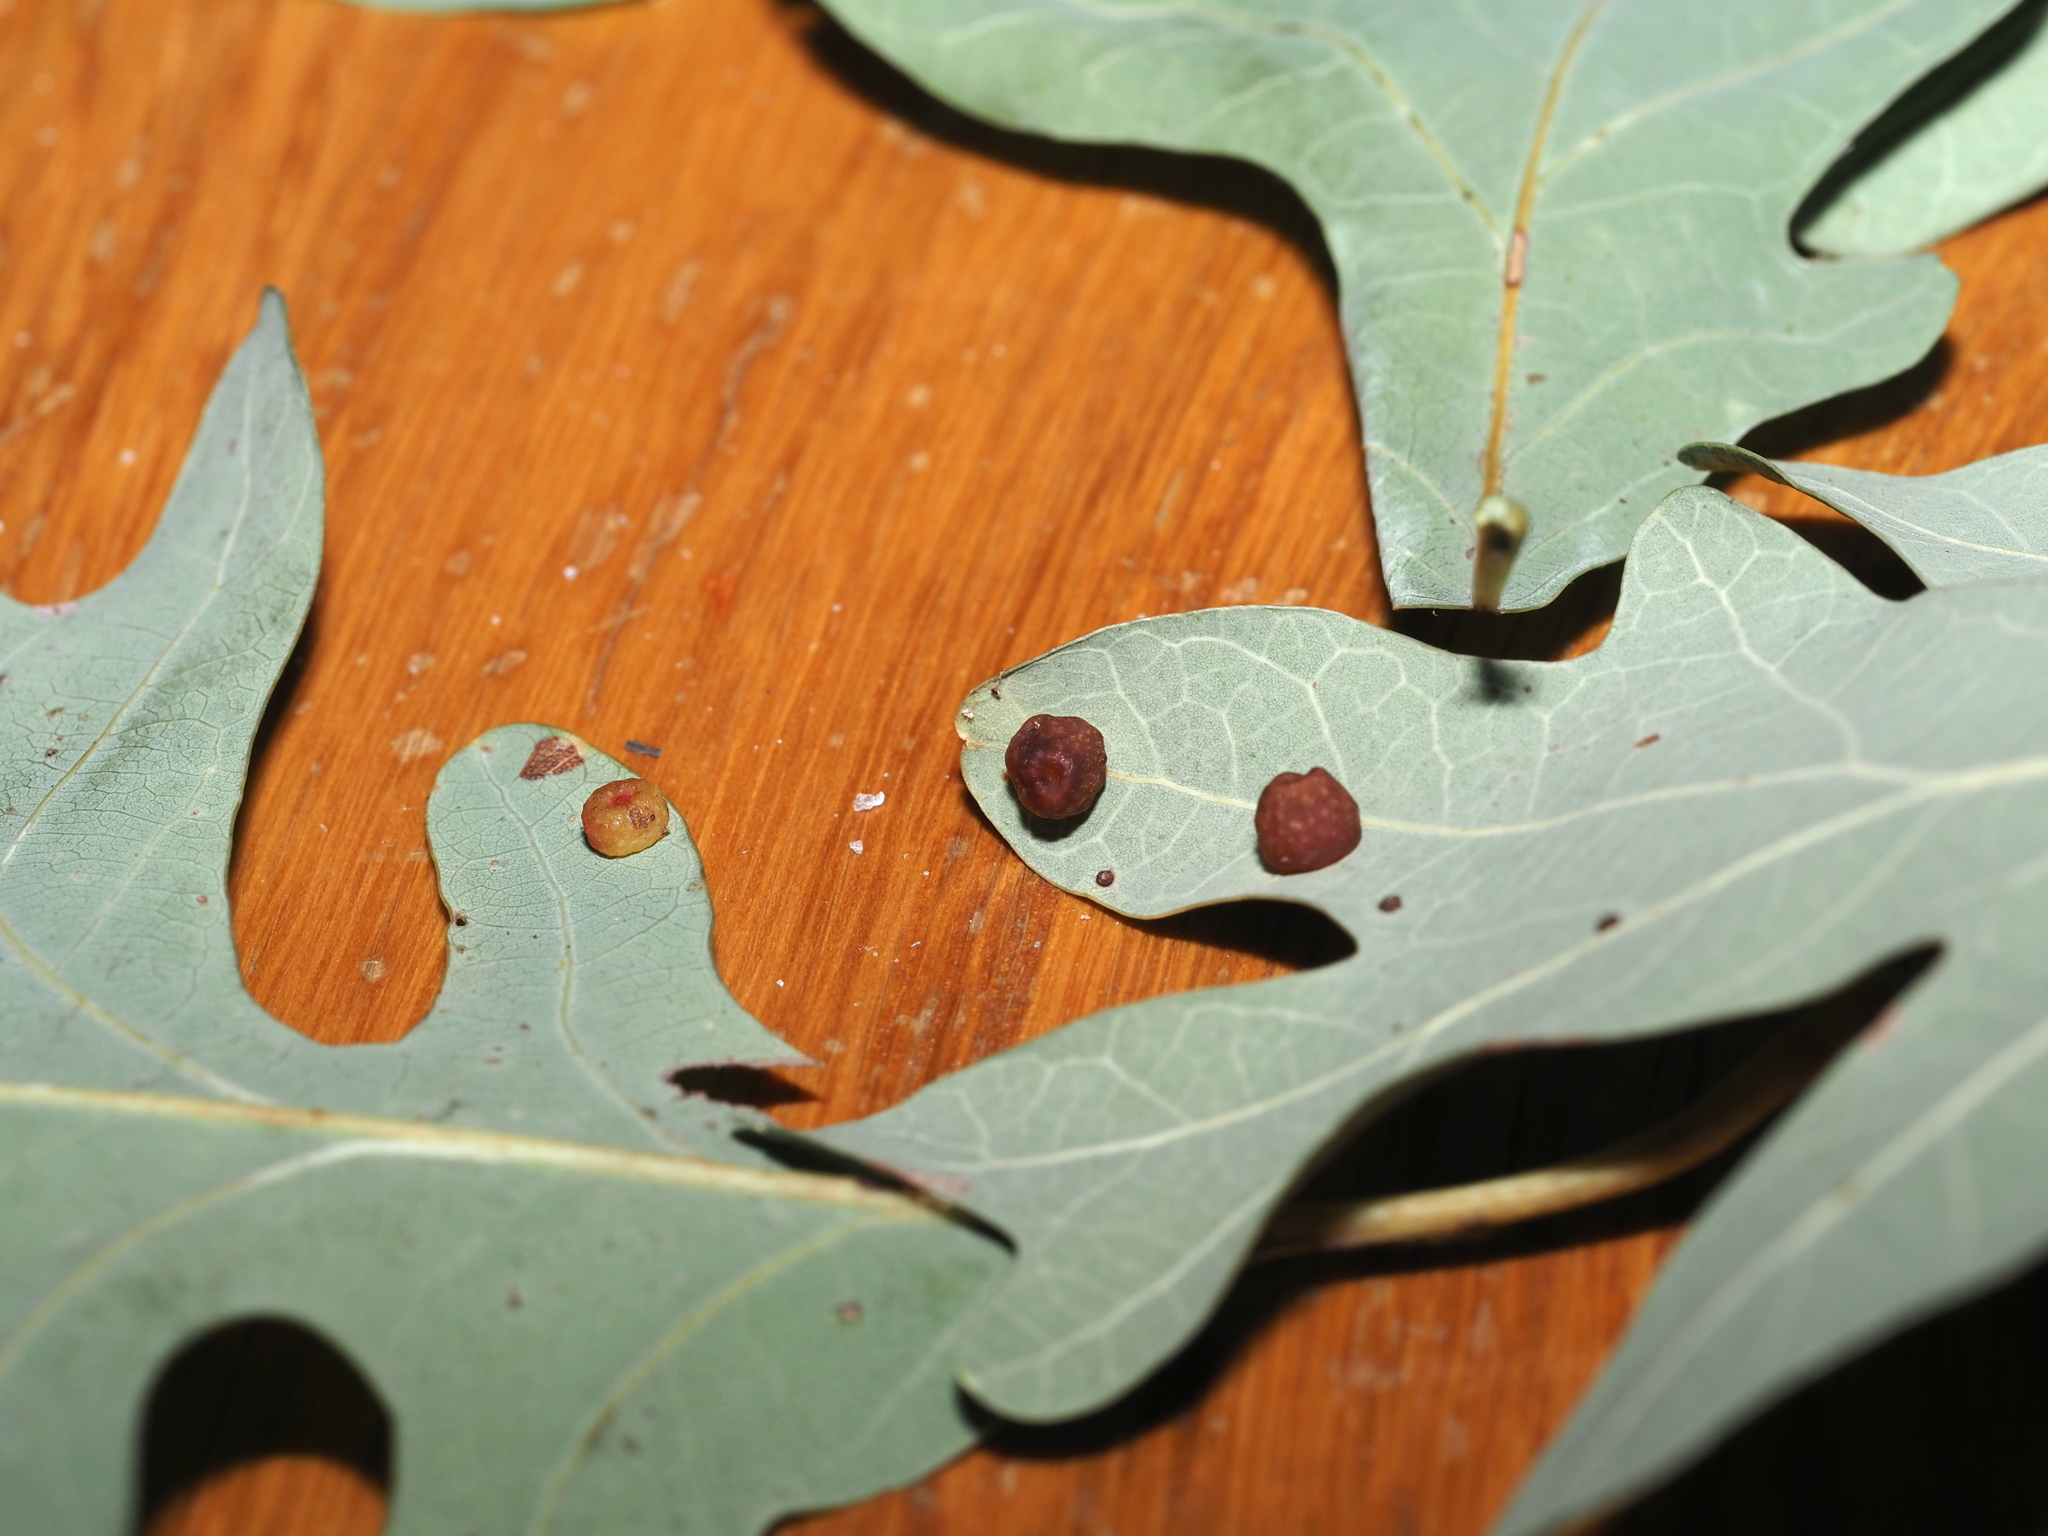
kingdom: Animalia
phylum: Arthropoda
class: Insecta
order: Hymenoptera
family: Cynipidae
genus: Andricus
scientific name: Andricus
